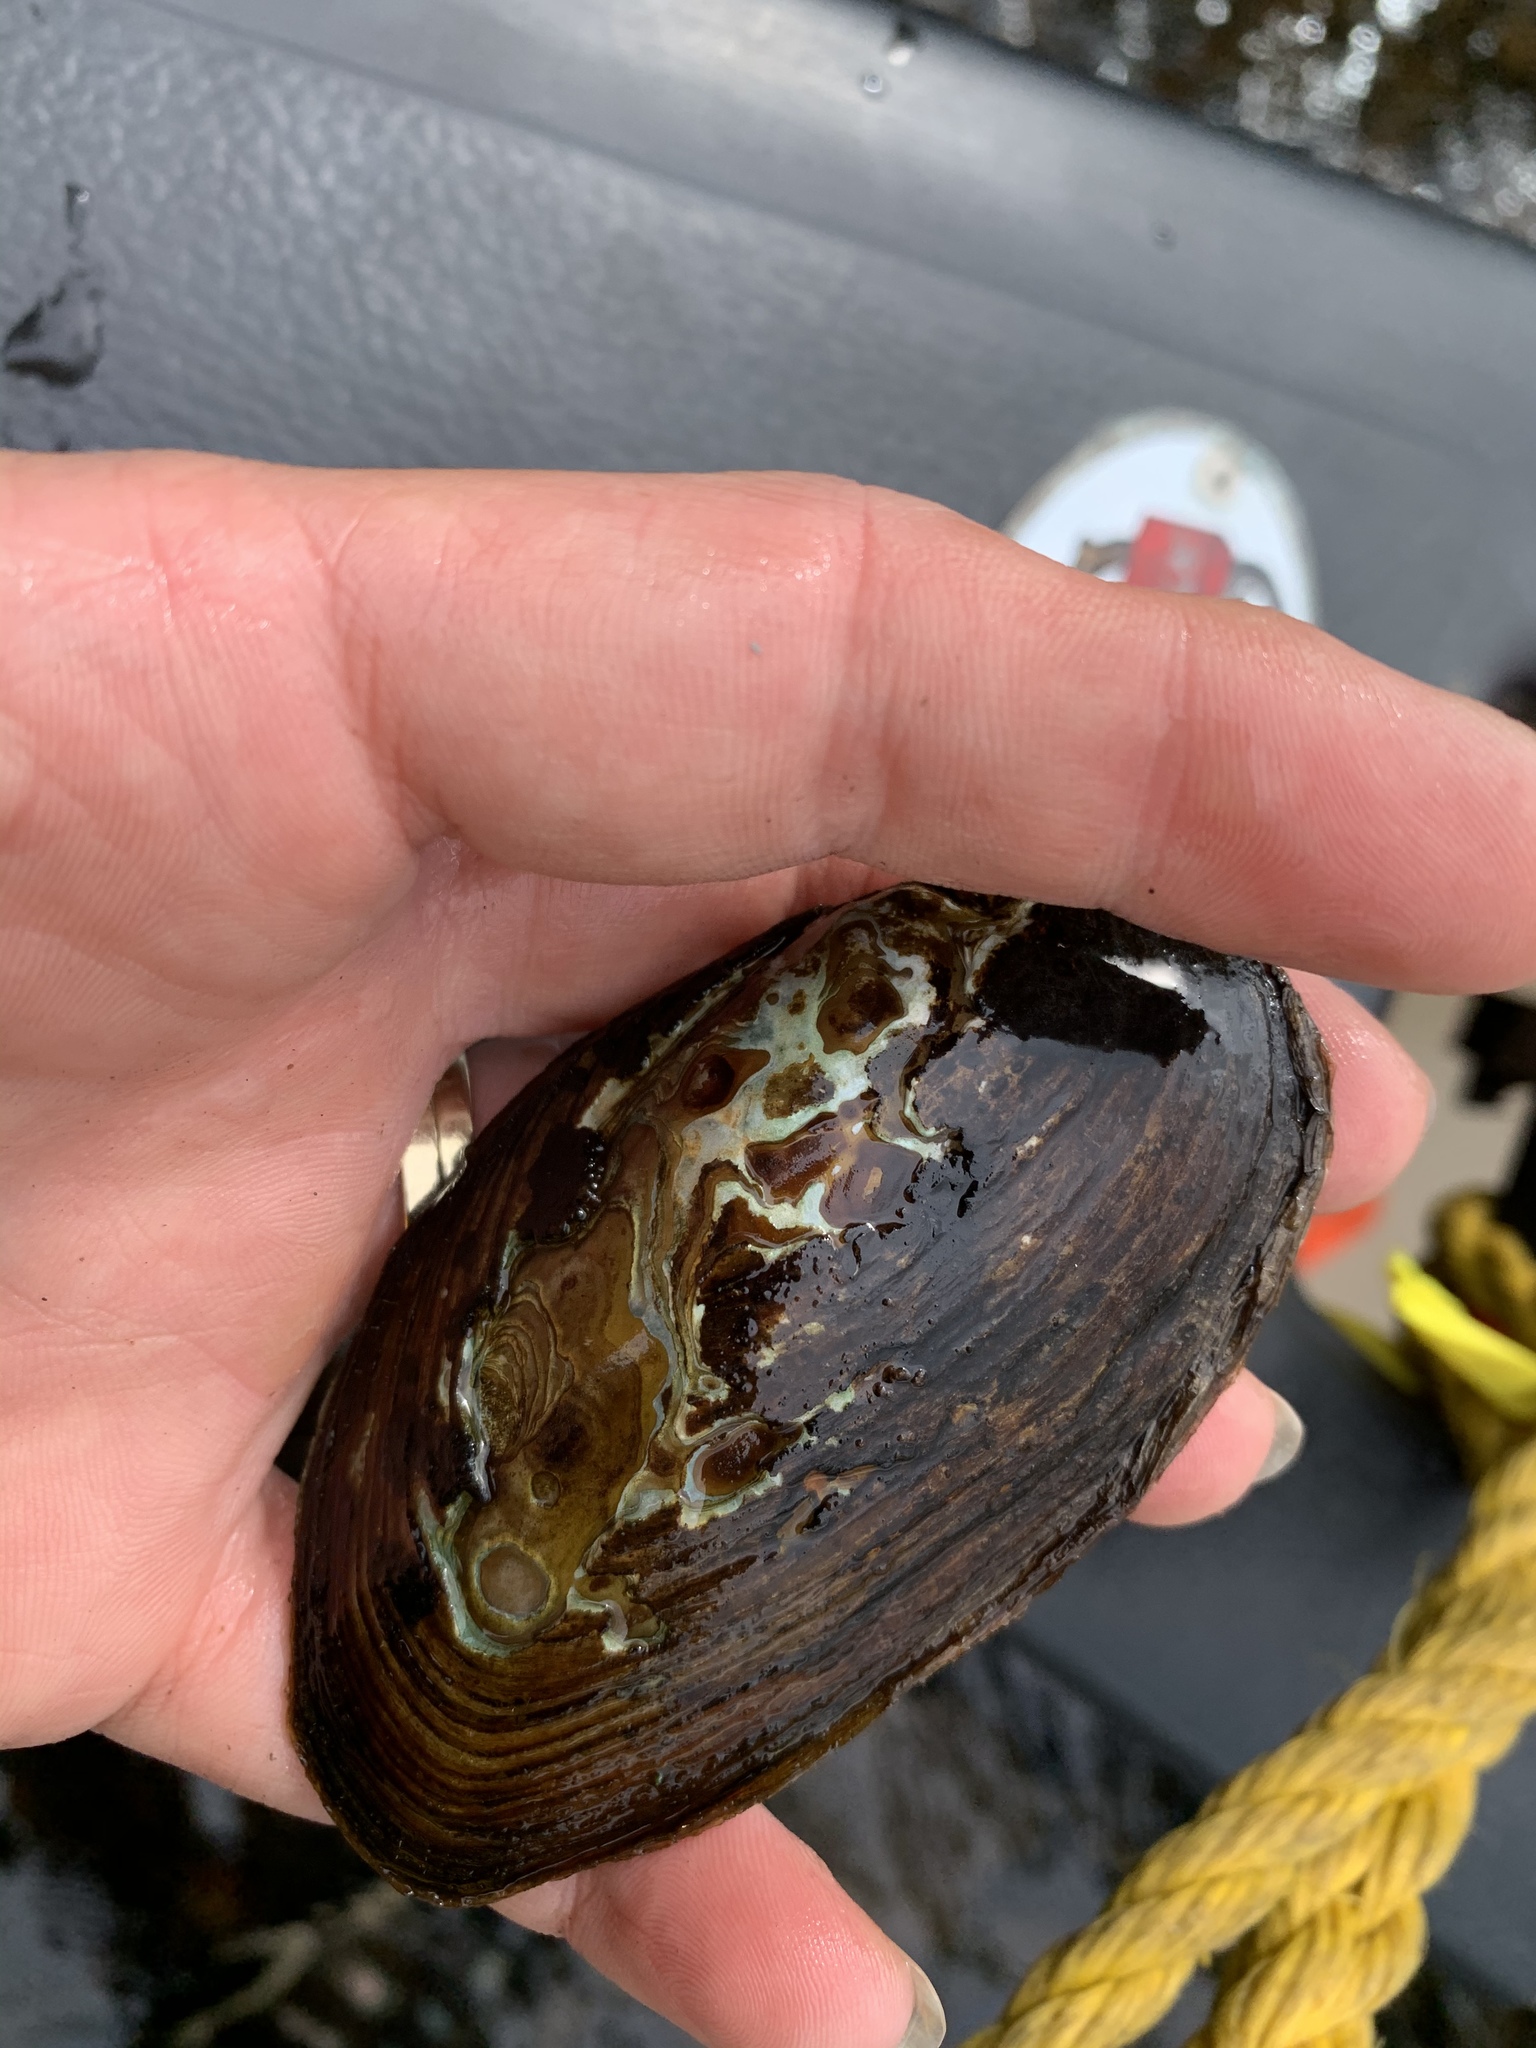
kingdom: Animalia
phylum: Mollusca
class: Bivalvia
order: Unionida
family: Unionidae
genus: Elliptio
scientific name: Elliptio complanata
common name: Eastern elliptio
